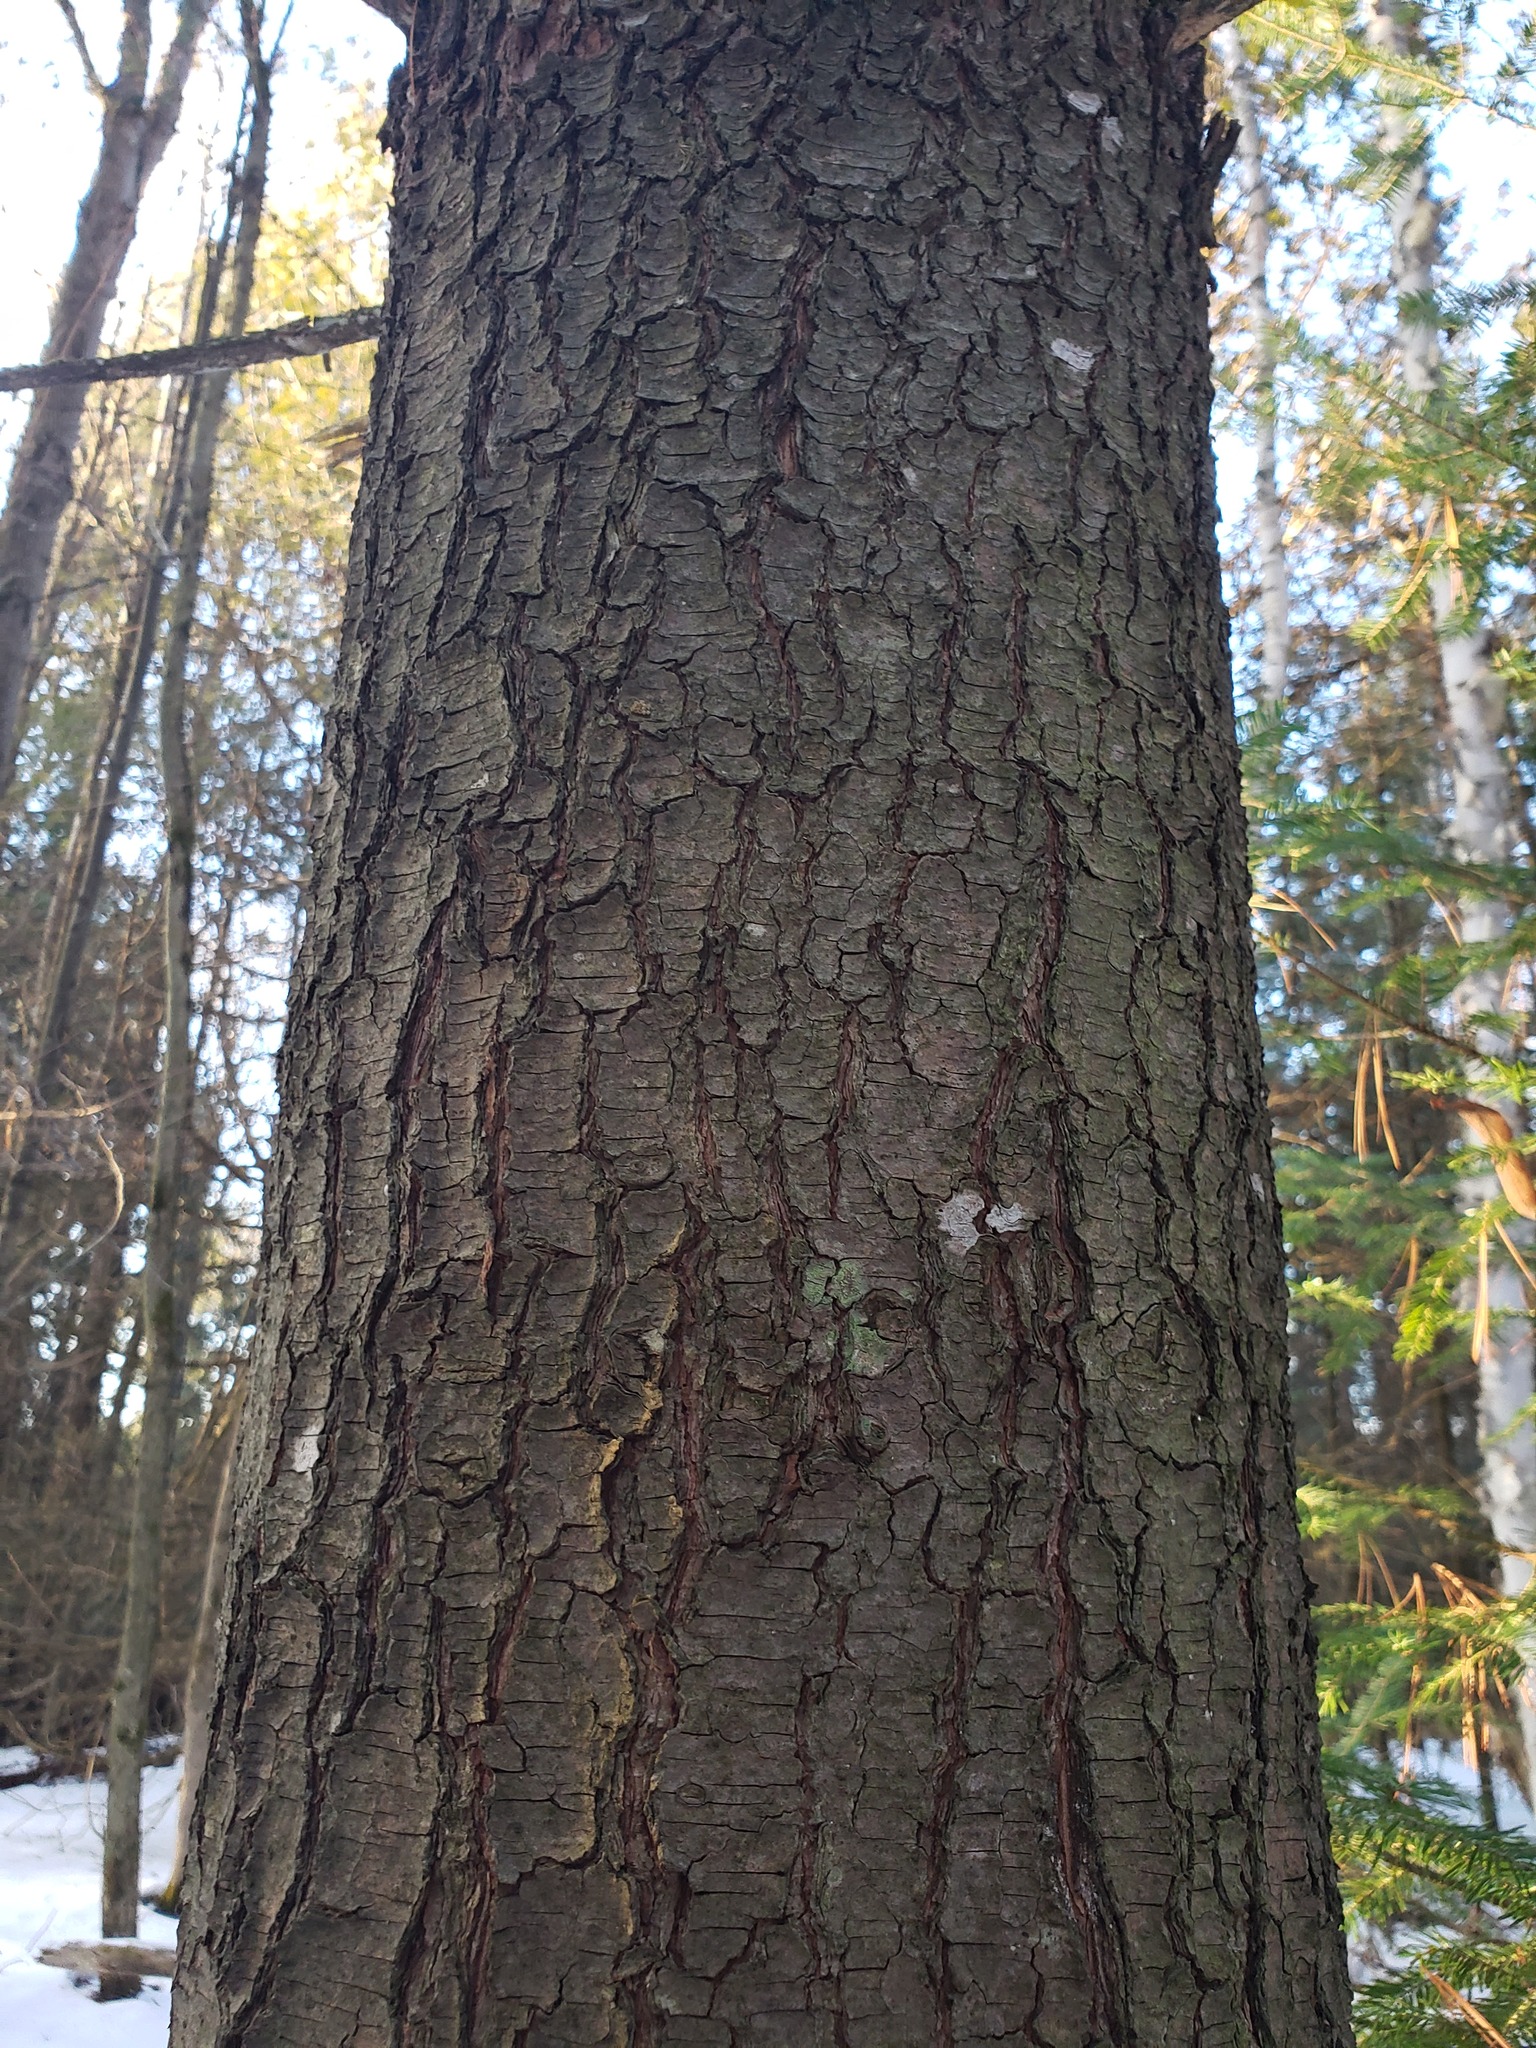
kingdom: Plantae
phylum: Tracheophyta
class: Pinopsida
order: Pinales
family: Pinaceae
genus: Pinus
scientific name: Pinus strobus
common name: Weymouth pine
